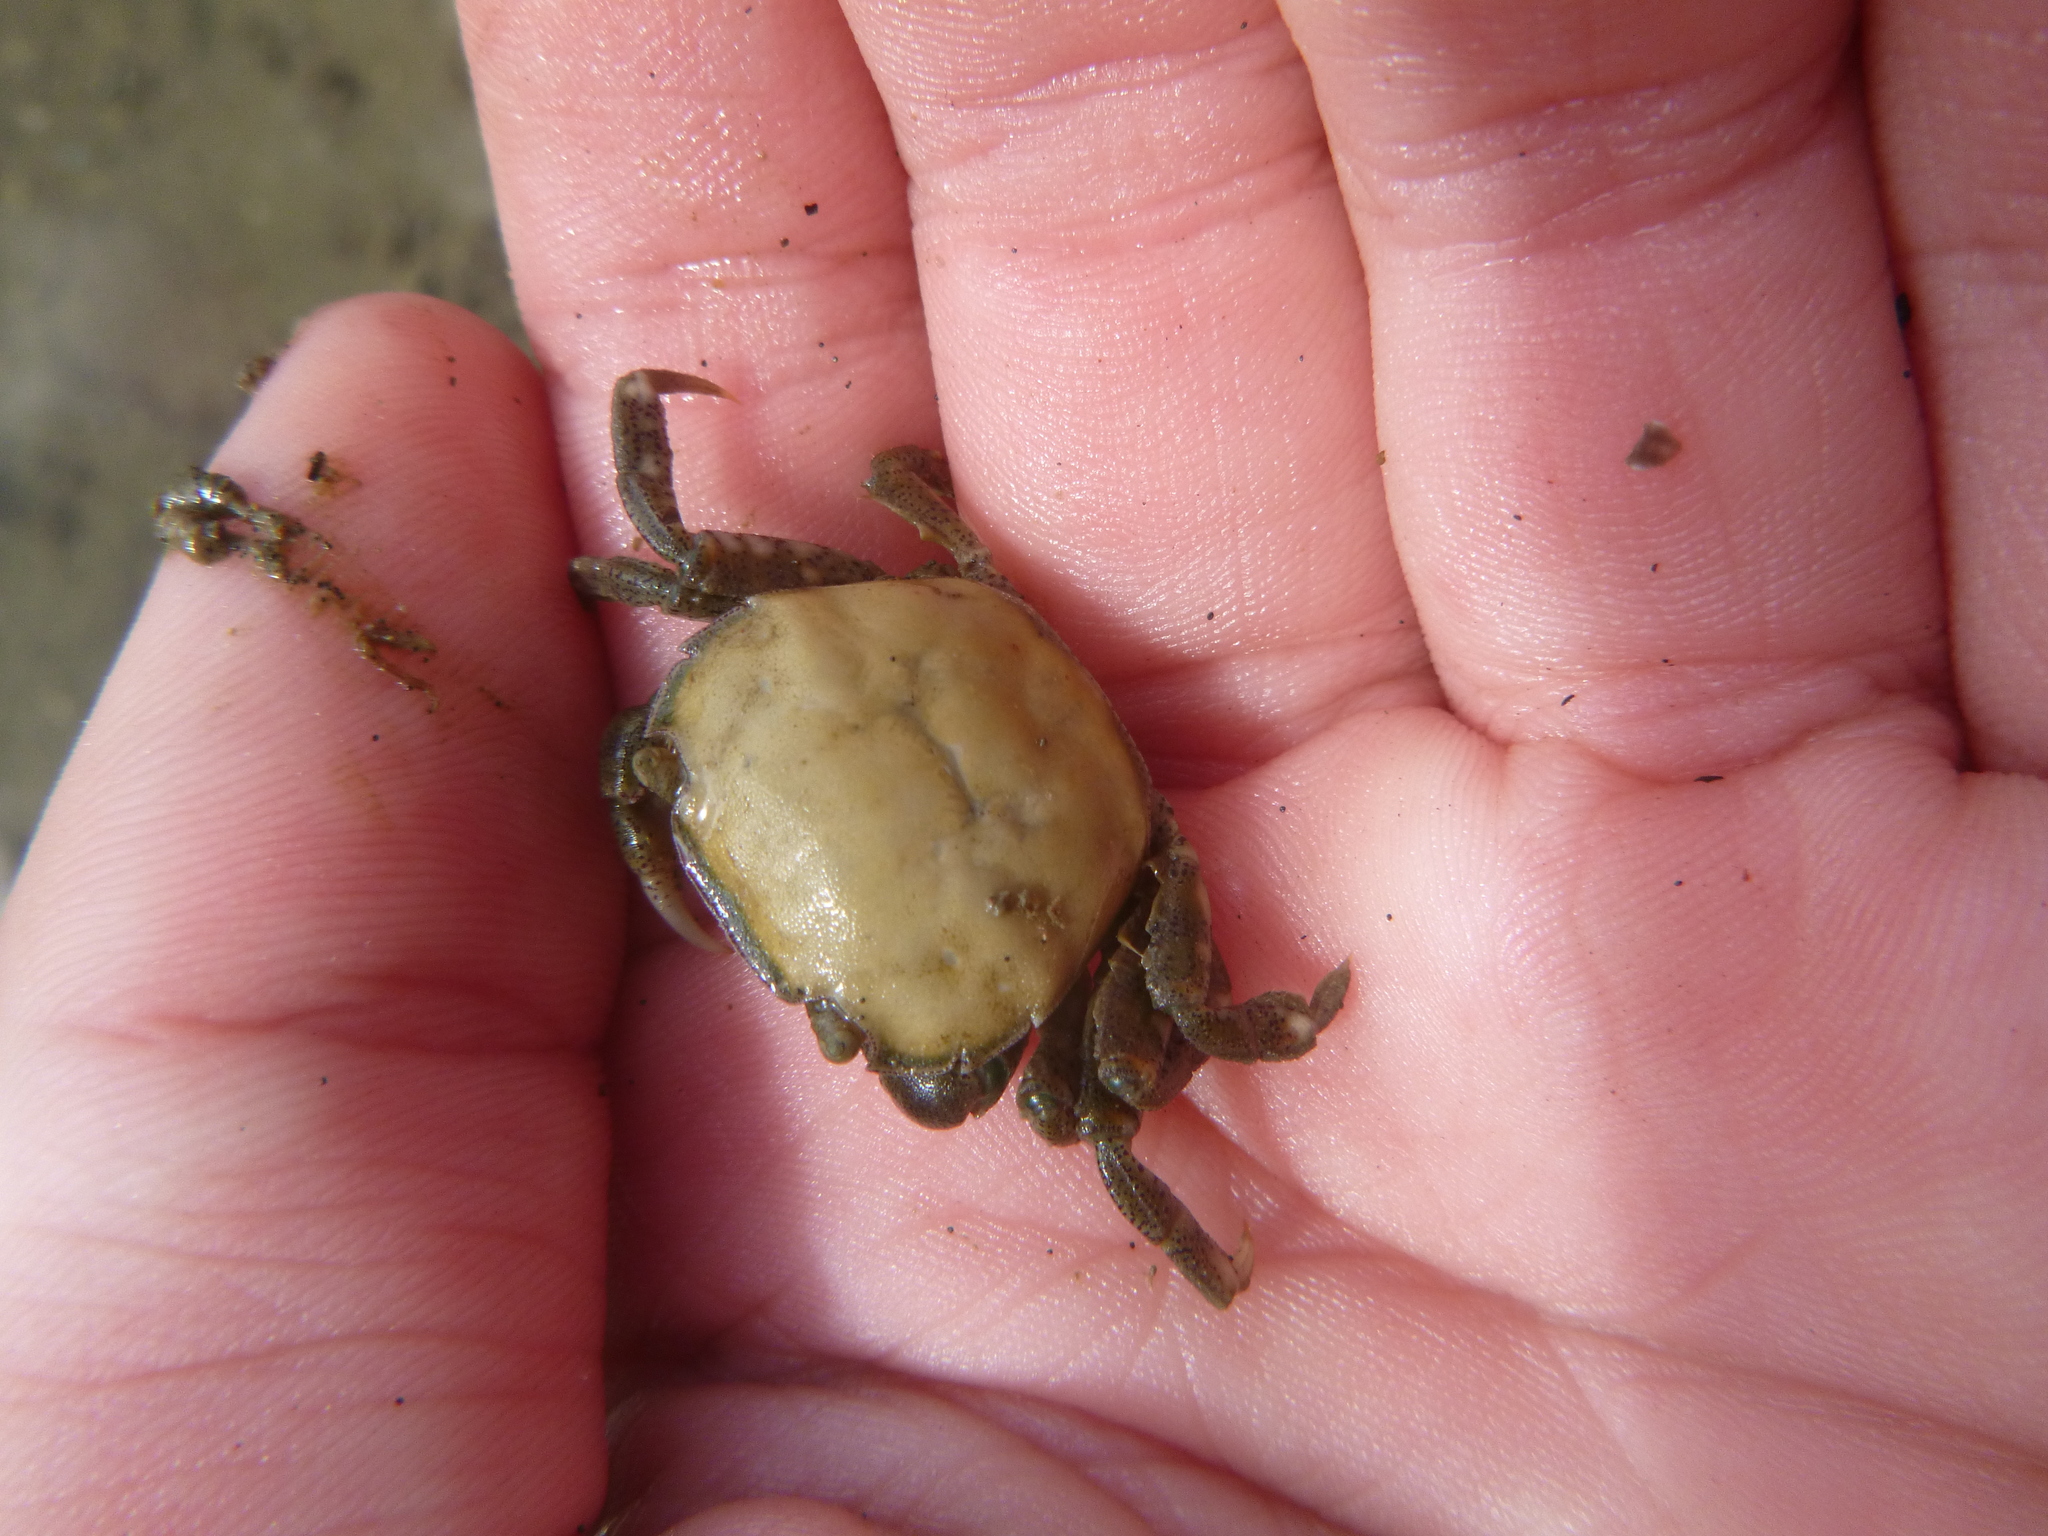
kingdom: Animalia
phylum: Arthropoda
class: Malacostraca
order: Decapoda
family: Varunidae
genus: Hemigrapsus
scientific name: Hemigrapsus crenulatus
